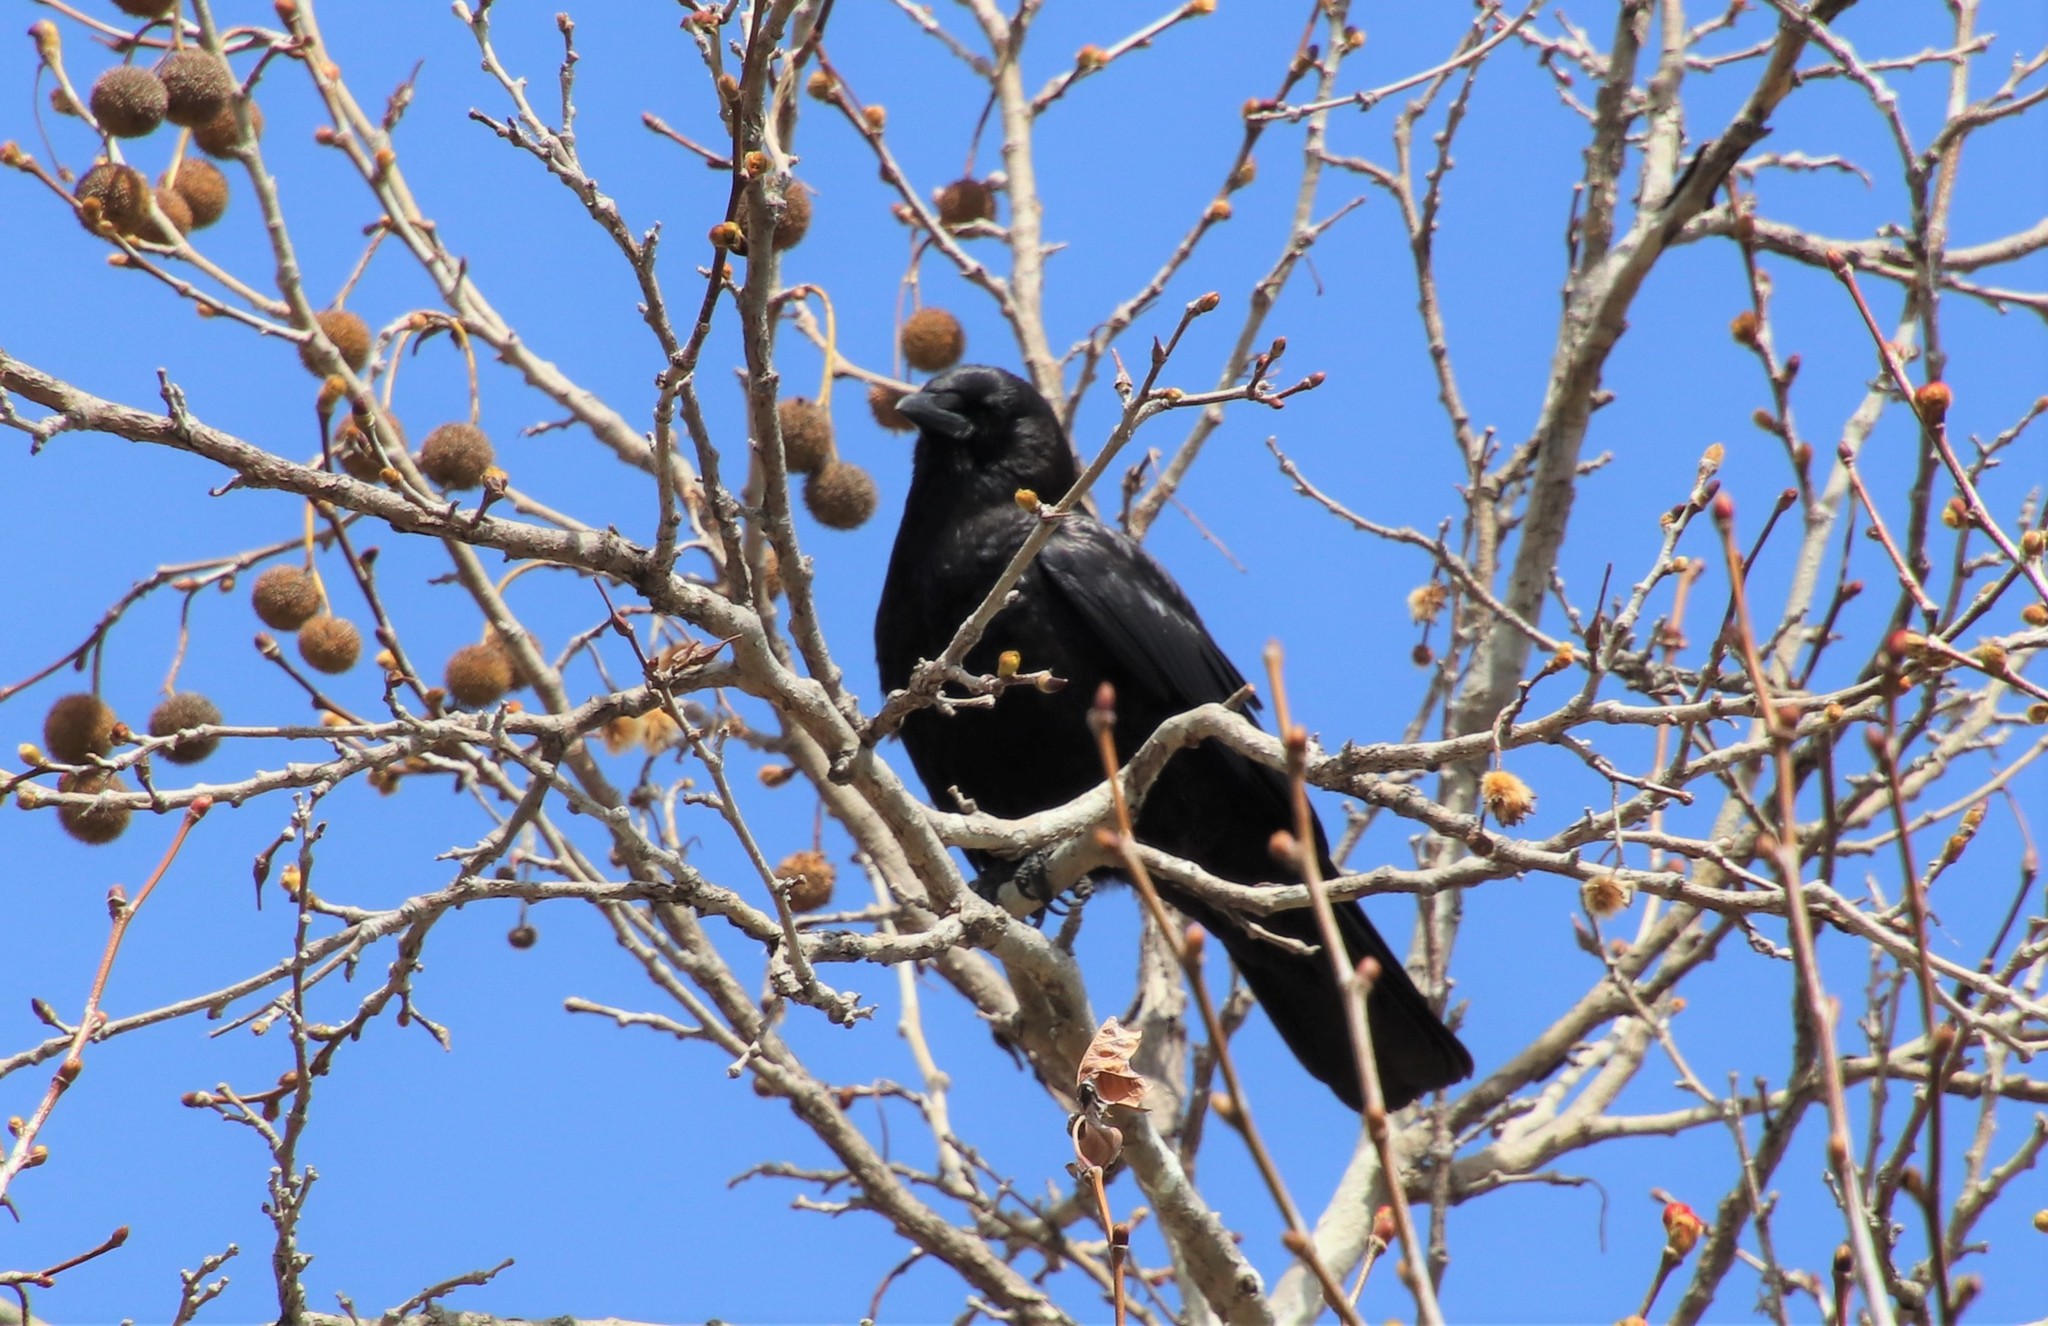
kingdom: Animalia
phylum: Chordata
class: Aves
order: Passeriformes
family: Corvidae
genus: Corvus
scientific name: Corvus brachyrhynchos
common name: American crow
